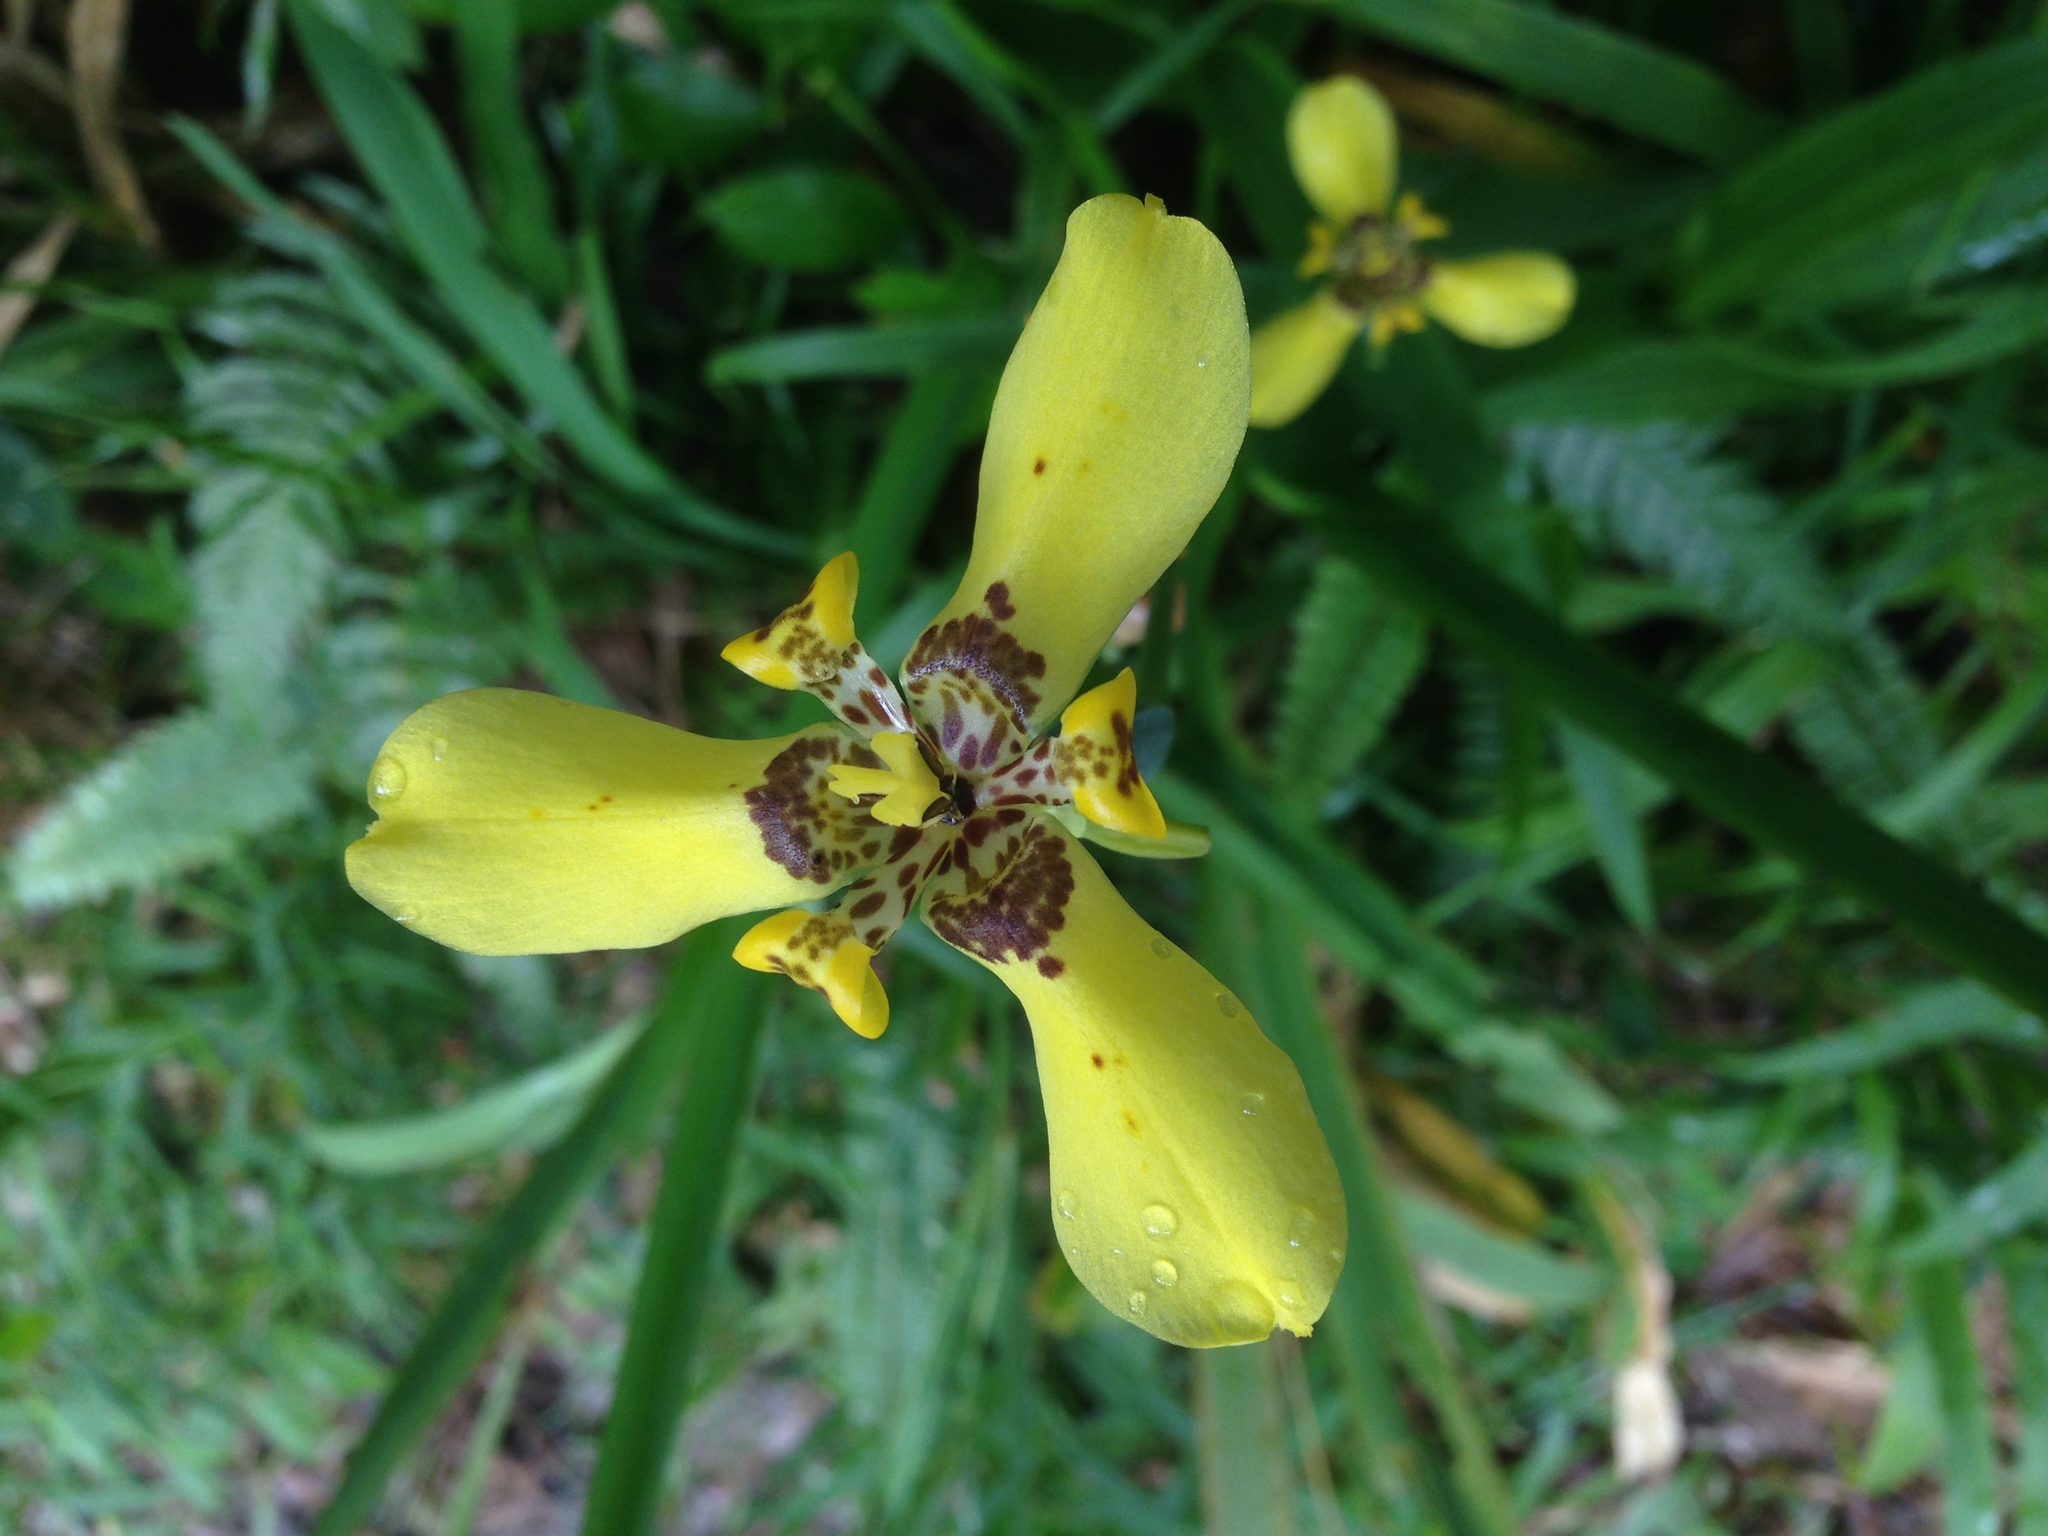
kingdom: Plantae
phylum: Tracheophyta
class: Liliopsida
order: Asparagales
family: Iridaceae
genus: Trimezia
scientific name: Trimezia steyermarkii
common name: Trimezia
